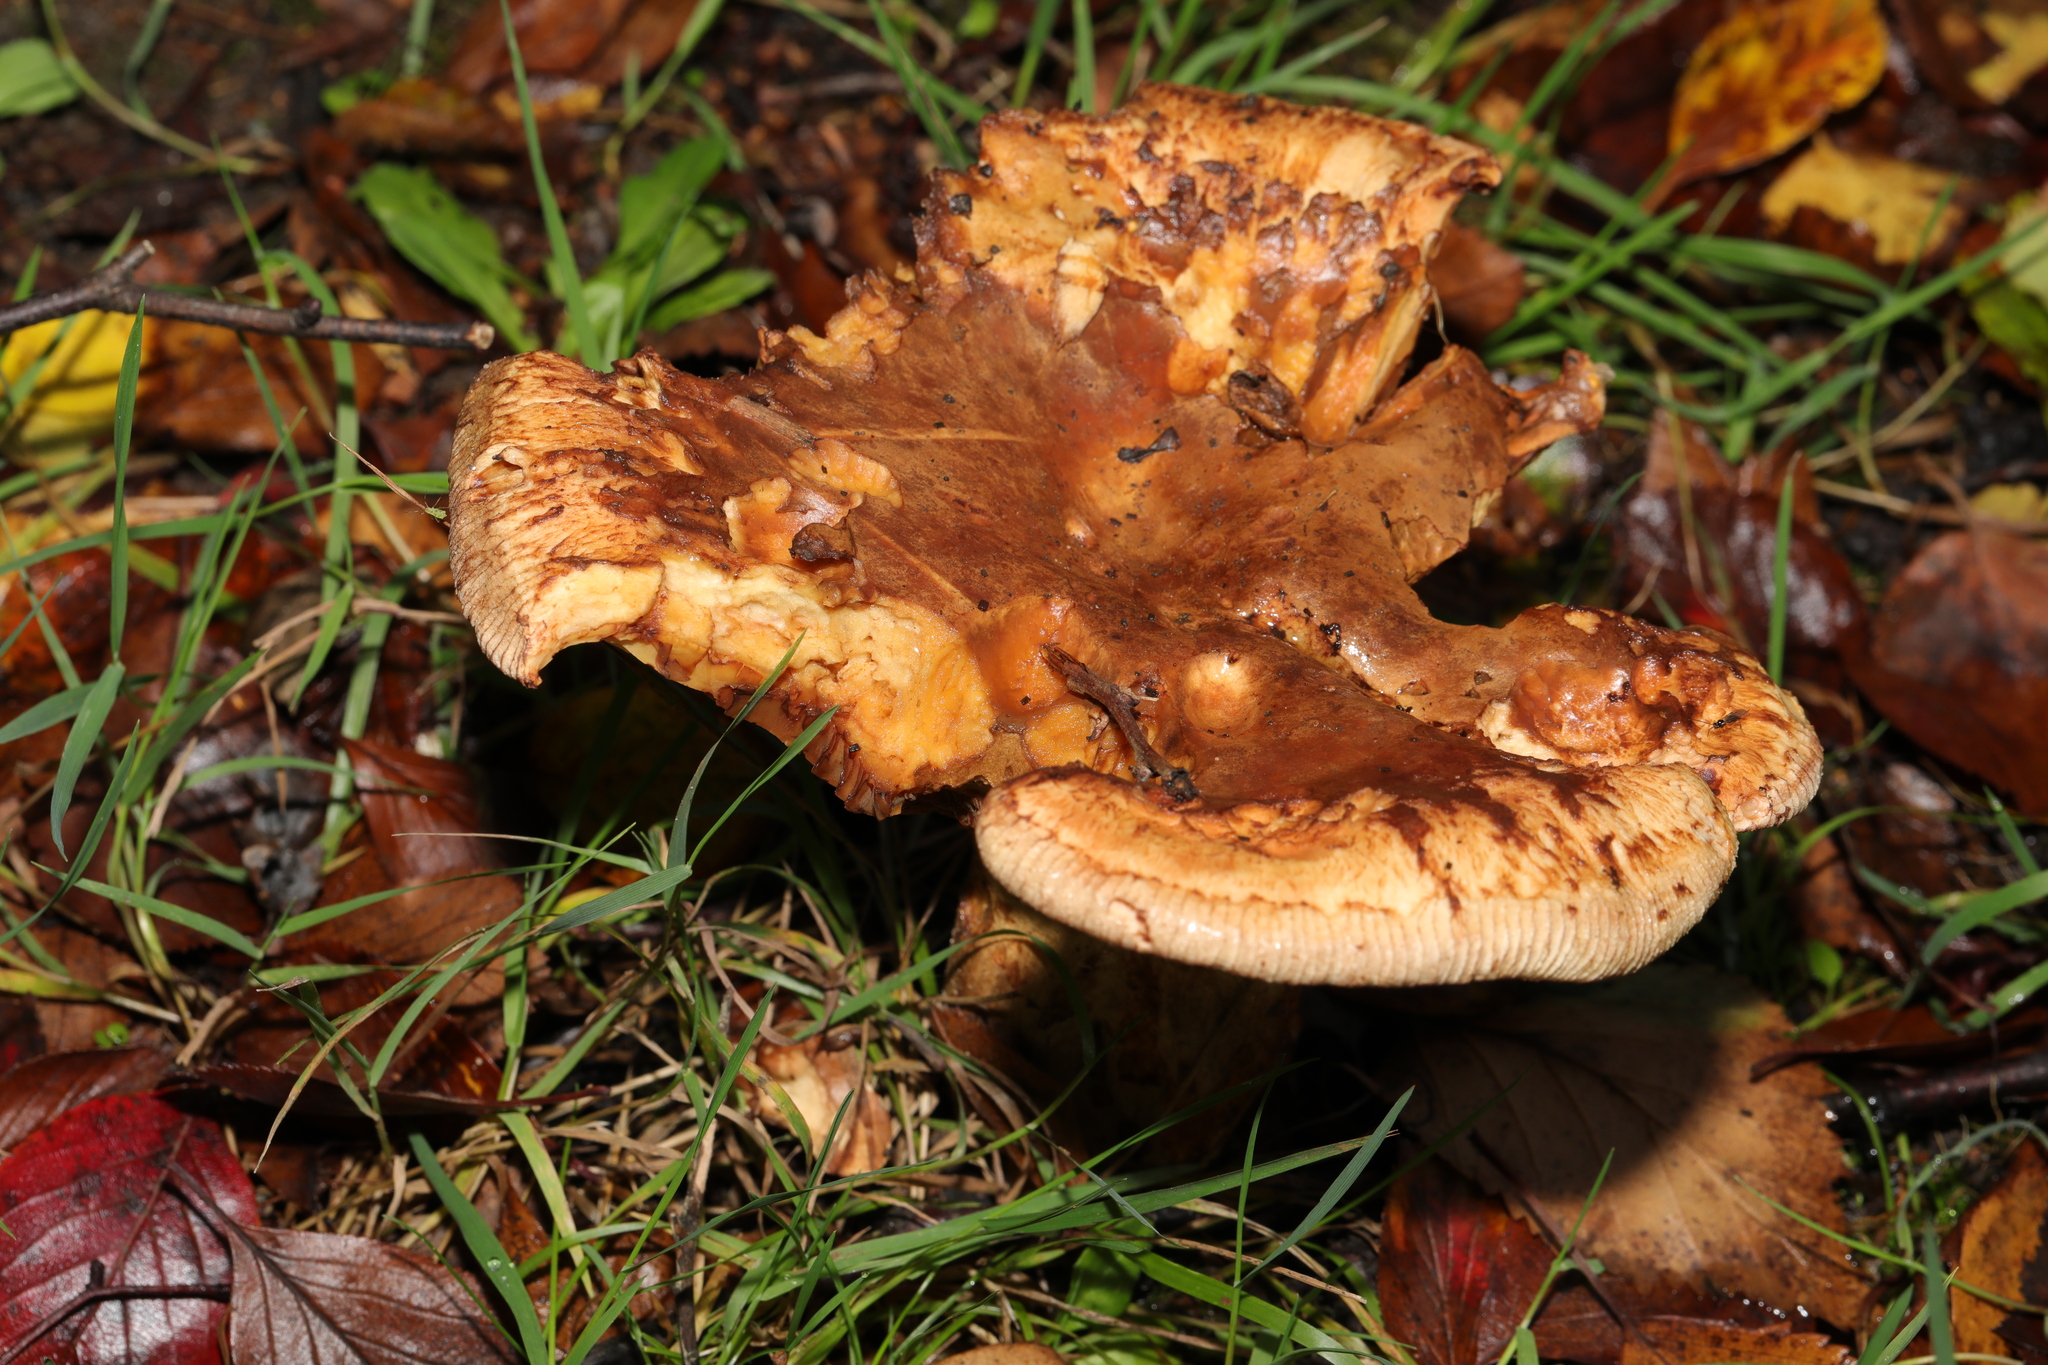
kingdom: Fungi
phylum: Basidiomycota
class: Agaricomycetes
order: Boletales
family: Paxillaceae
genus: Paxillus
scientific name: Paxillus
